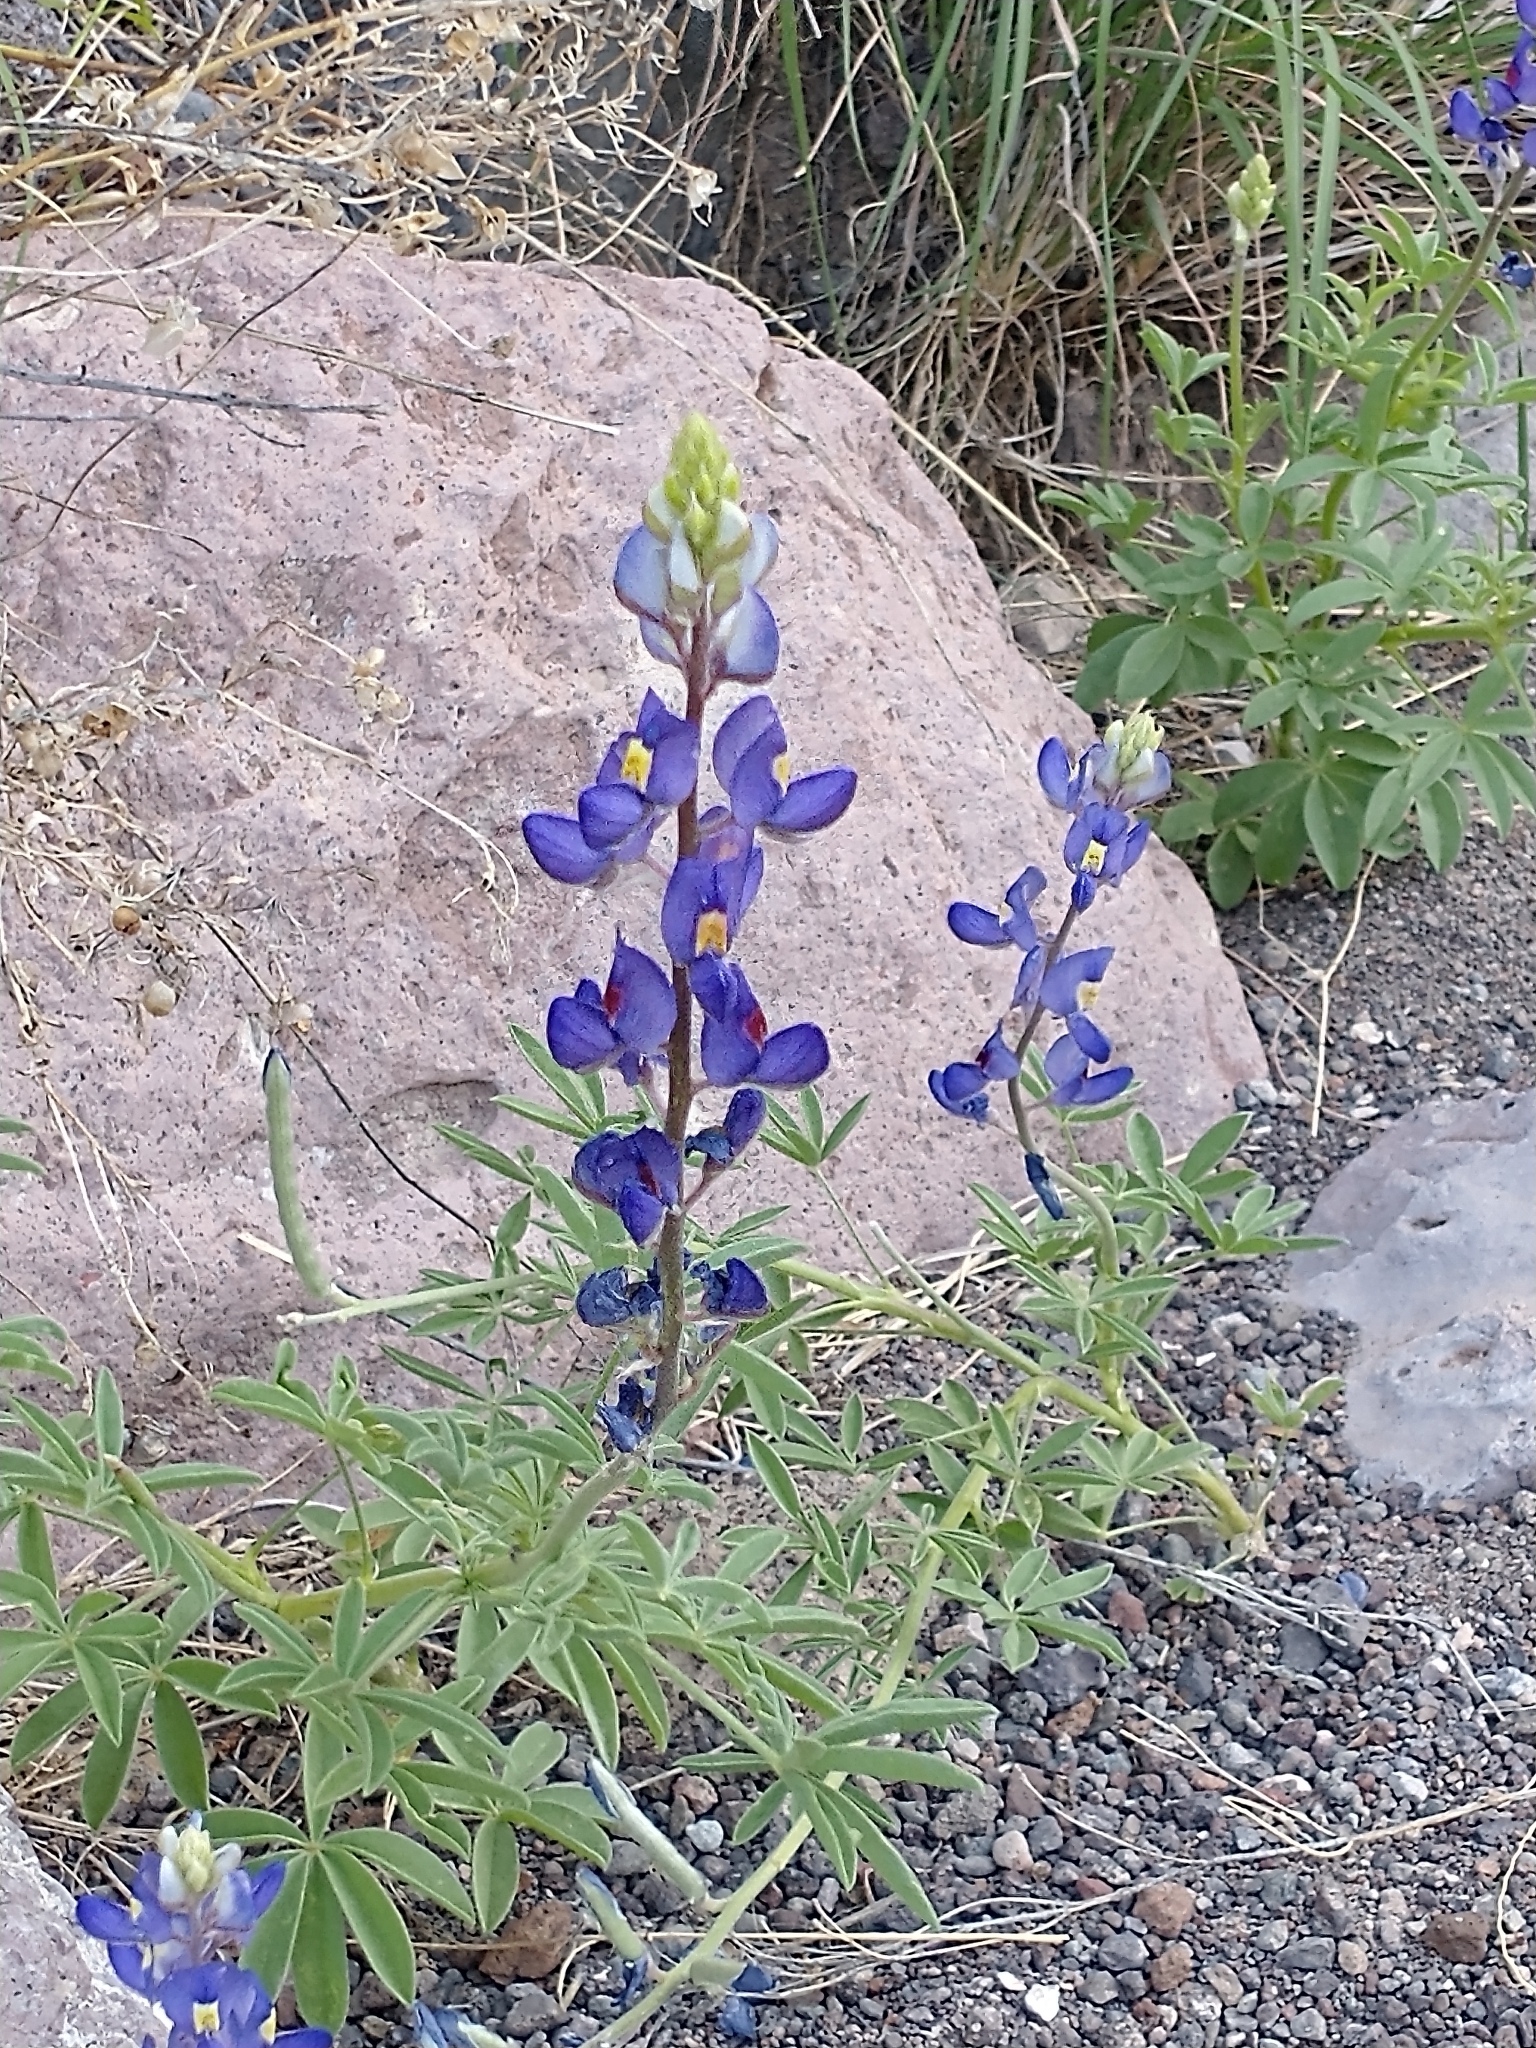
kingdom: Plantae
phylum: Tracheophyta
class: Magnoliopsida
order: Fabales
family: Fabaceae
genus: Lupinus
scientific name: Lupinus havardii
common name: Chisos bluebonnet
